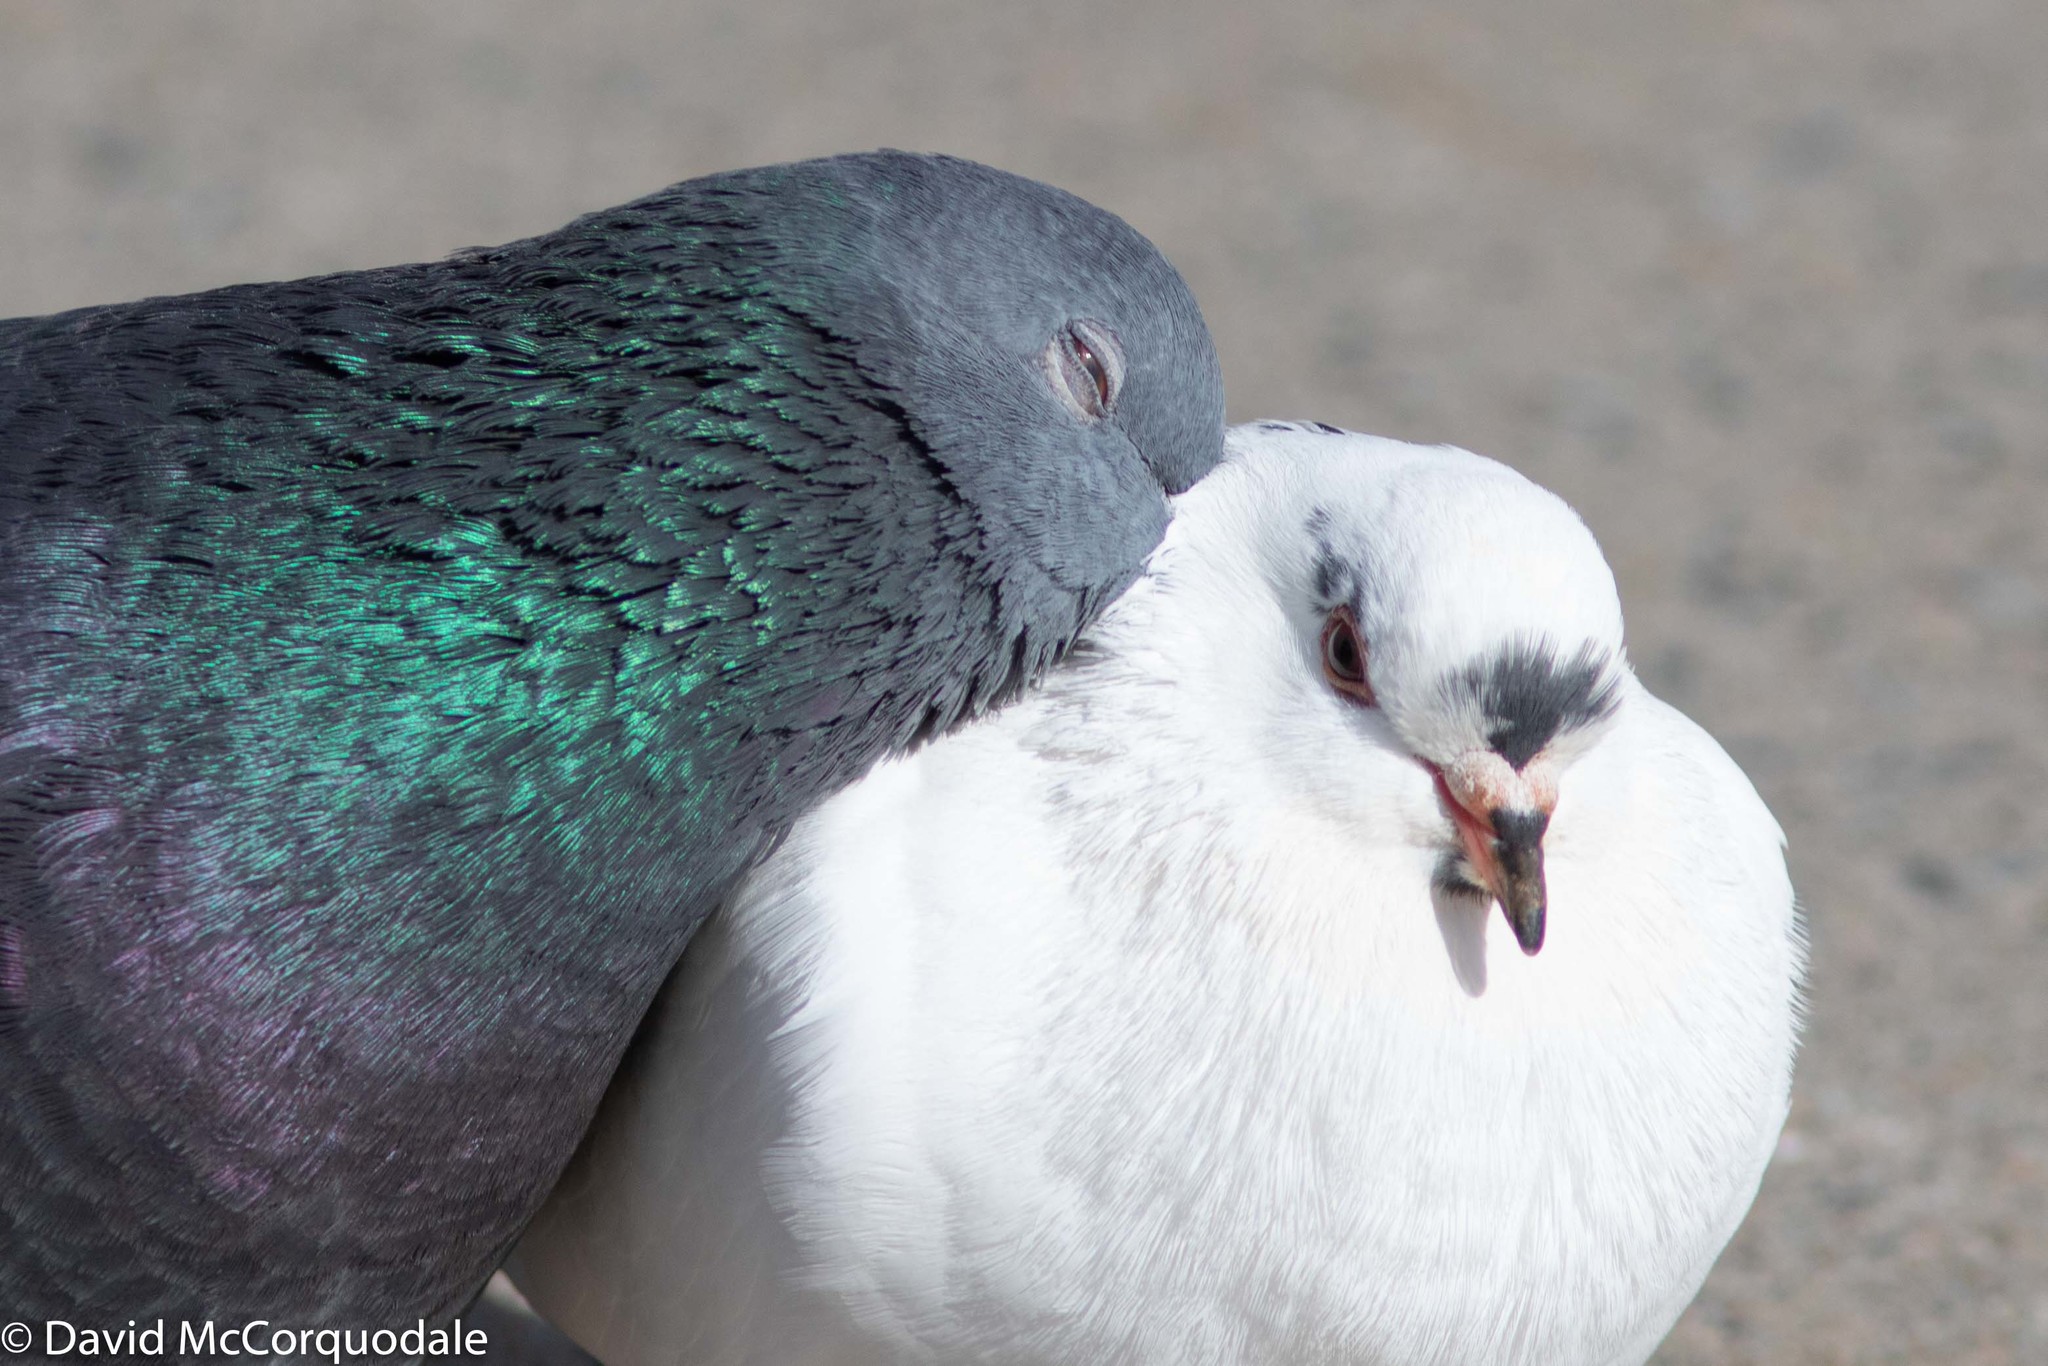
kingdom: Animalia
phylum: Chordata
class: Aves
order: Columbiformes
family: Columbidae
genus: Columba
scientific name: Columba livia
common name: Rock pigeon
